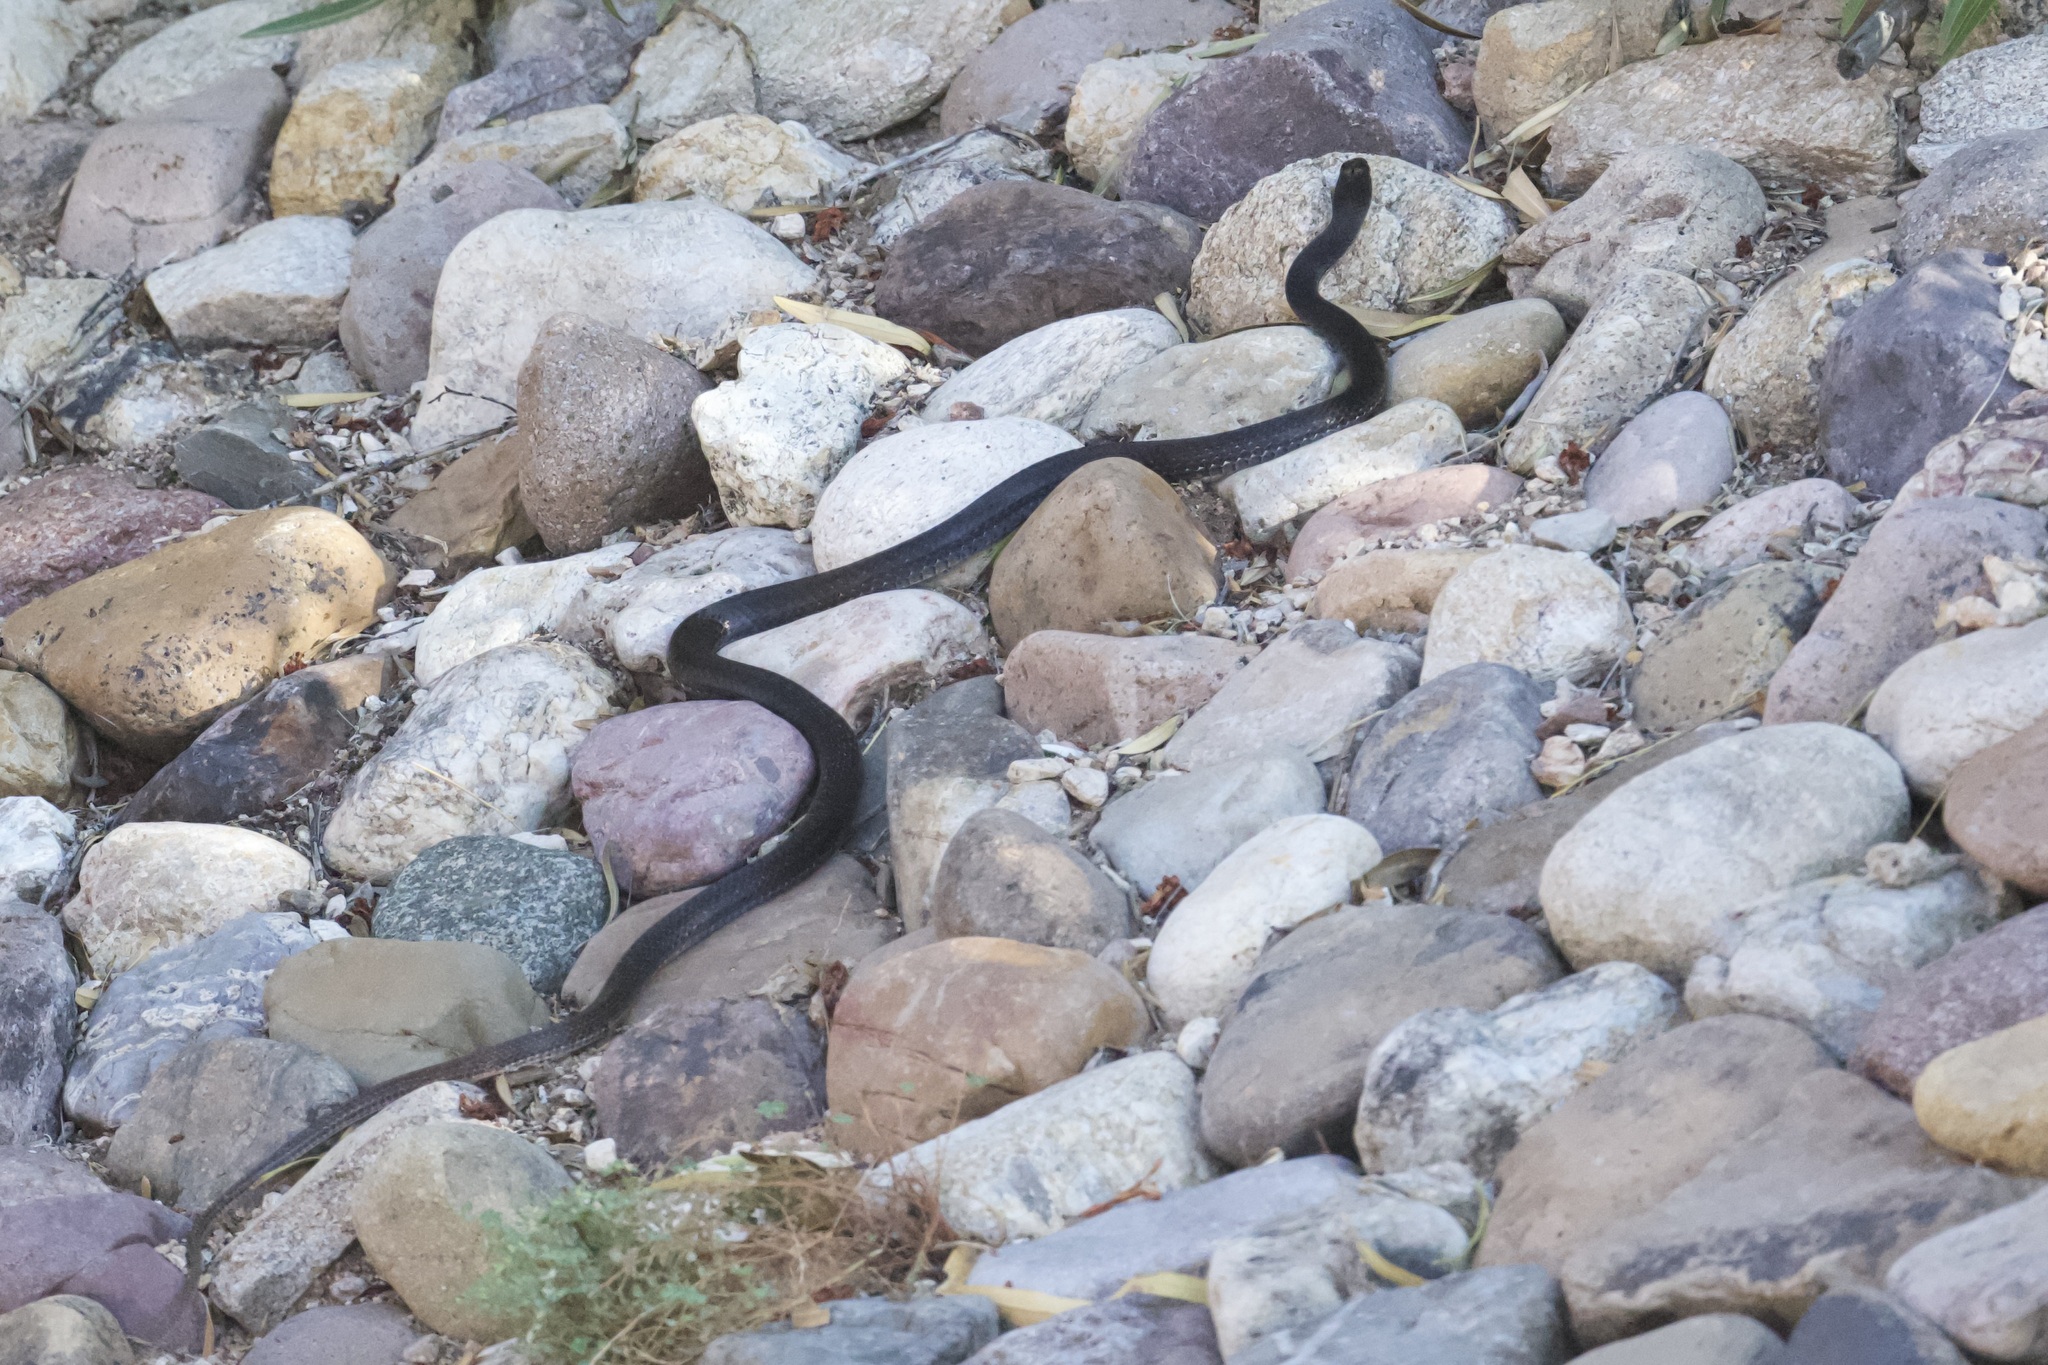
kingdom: Animalia
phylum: Chordata
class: Squamata
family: Colubridae
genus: Masticophis
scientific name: Masticophis flagellum
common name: Coachwhip
